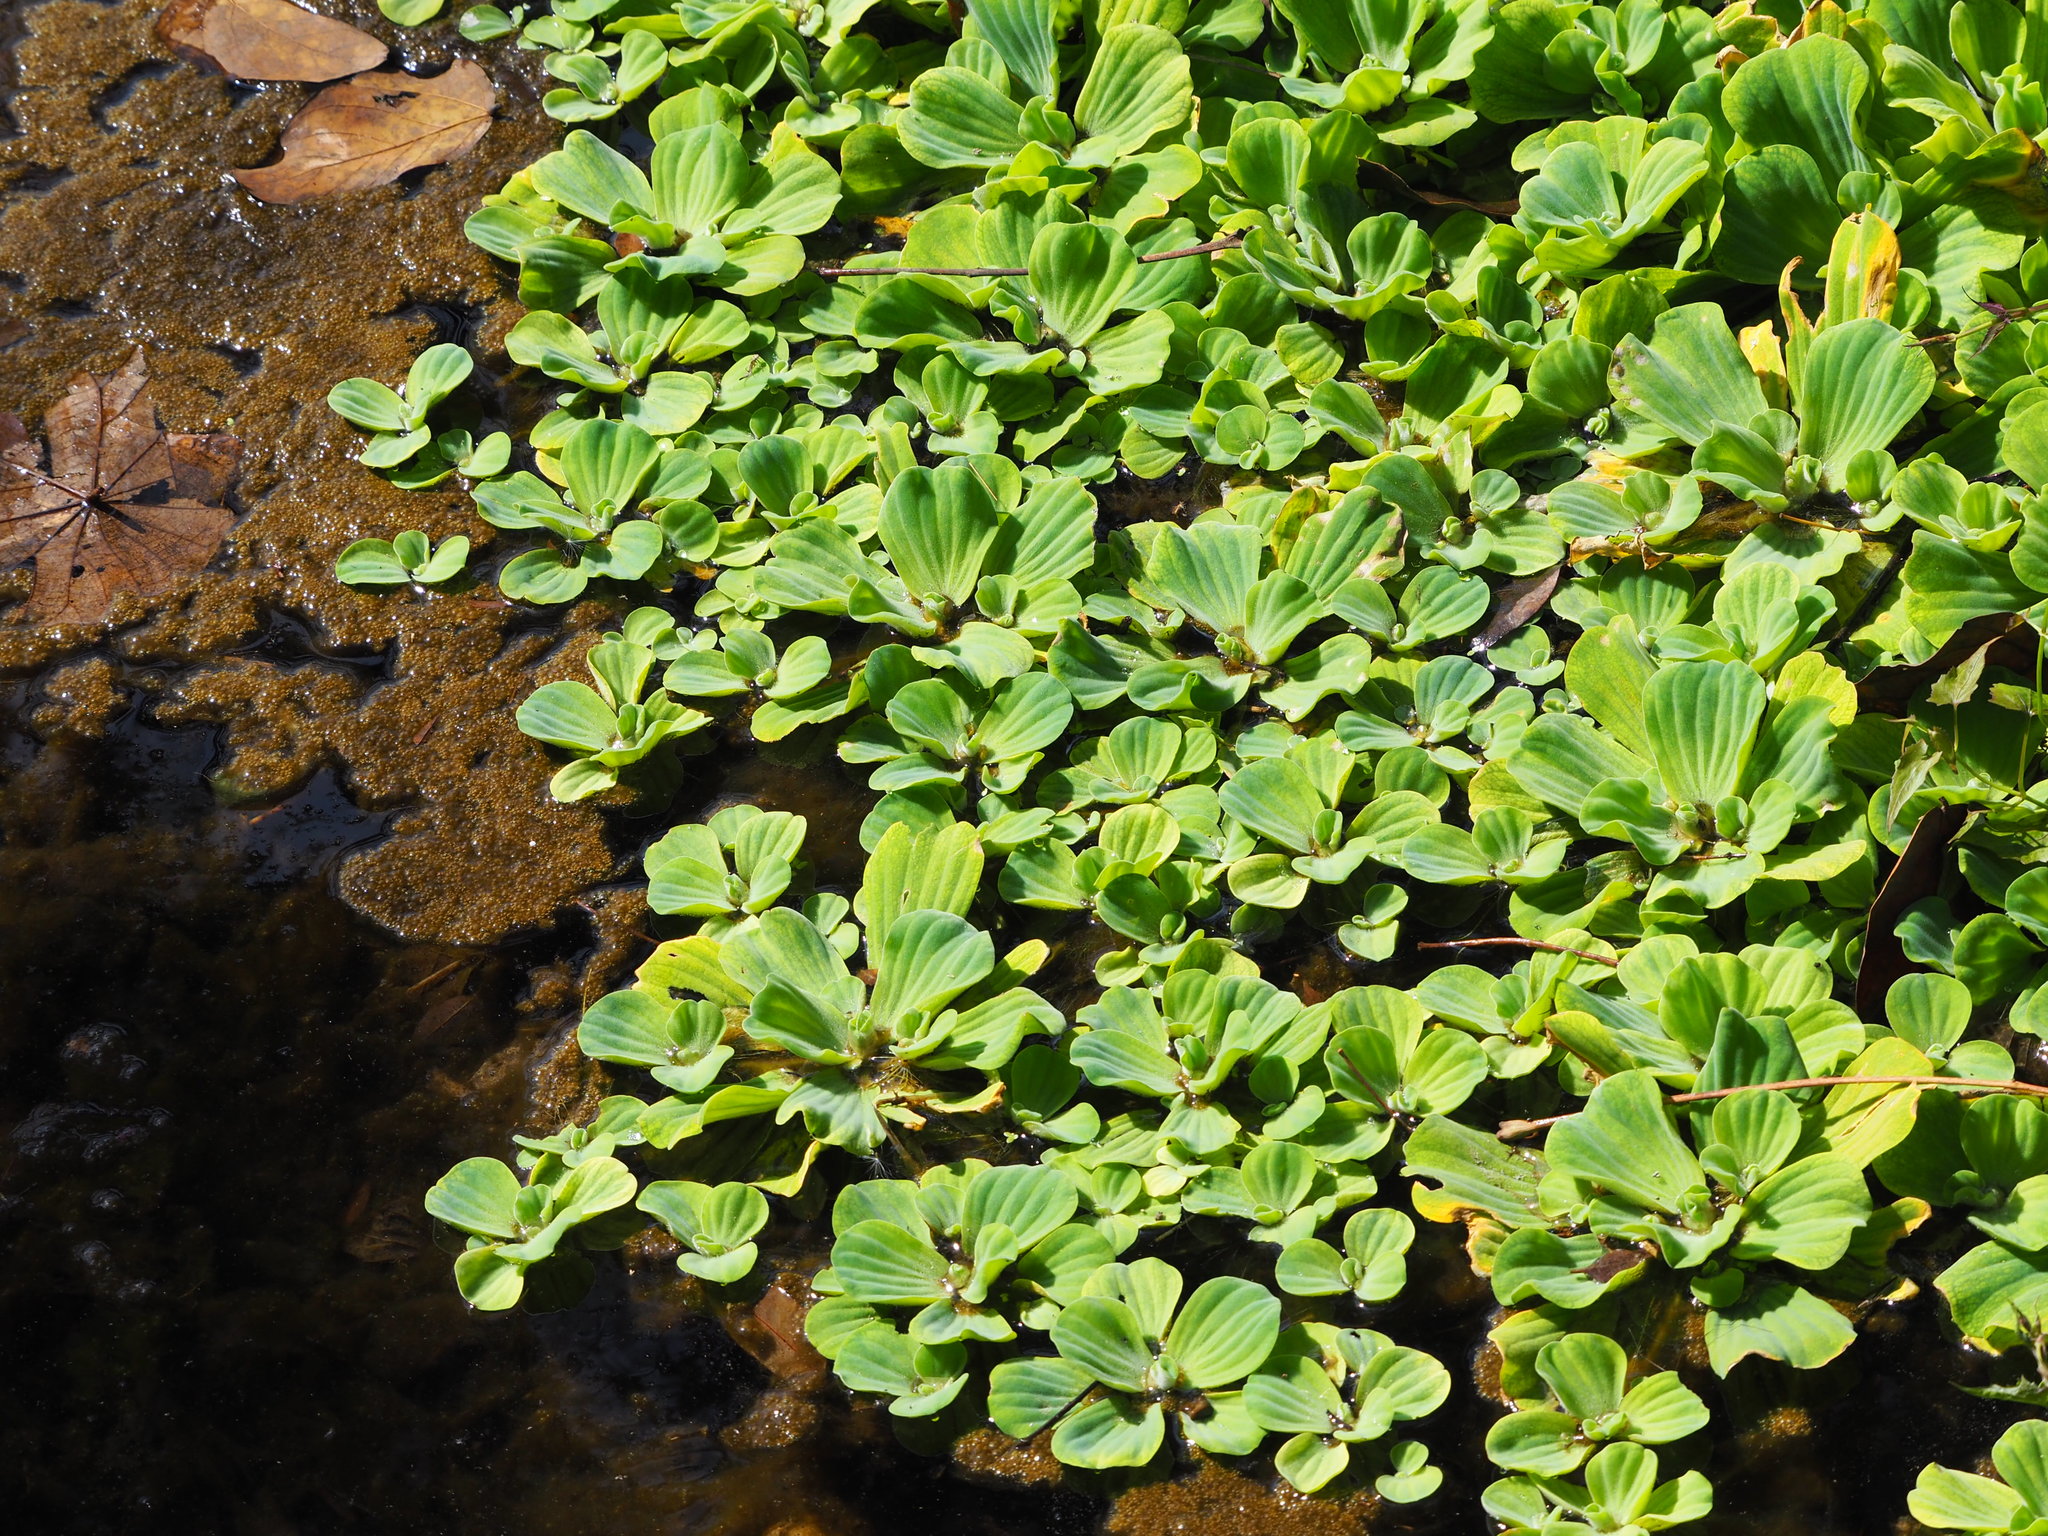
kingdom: Plantae
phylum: Tracheophyta
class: Liliopsida
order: Alismatales
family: Araceae
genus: Pistia
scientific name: Pistia stratiotes
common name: Water lettuce
